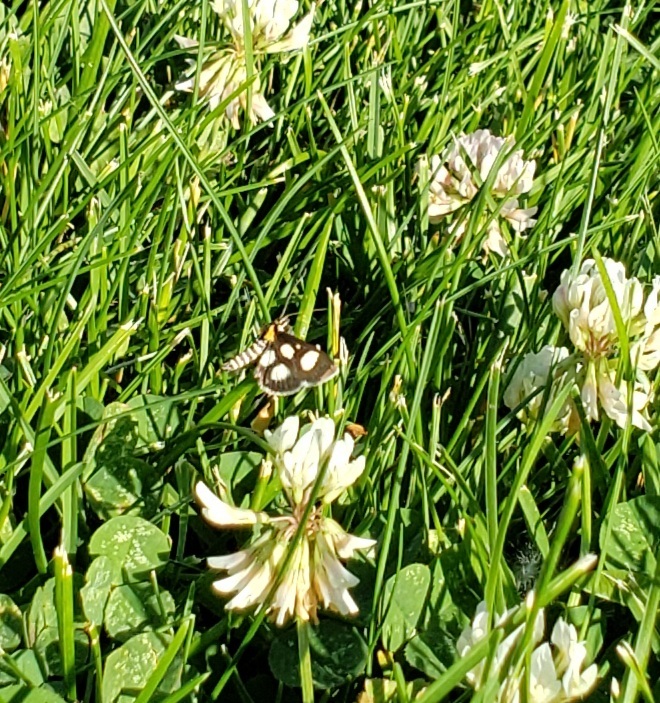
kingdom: Animalia
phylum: Arthropoda
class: Insecta
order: Lepidoptera
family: Crambidae
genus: Anania
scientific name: Anania funebris
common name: White-spotted sable moth
